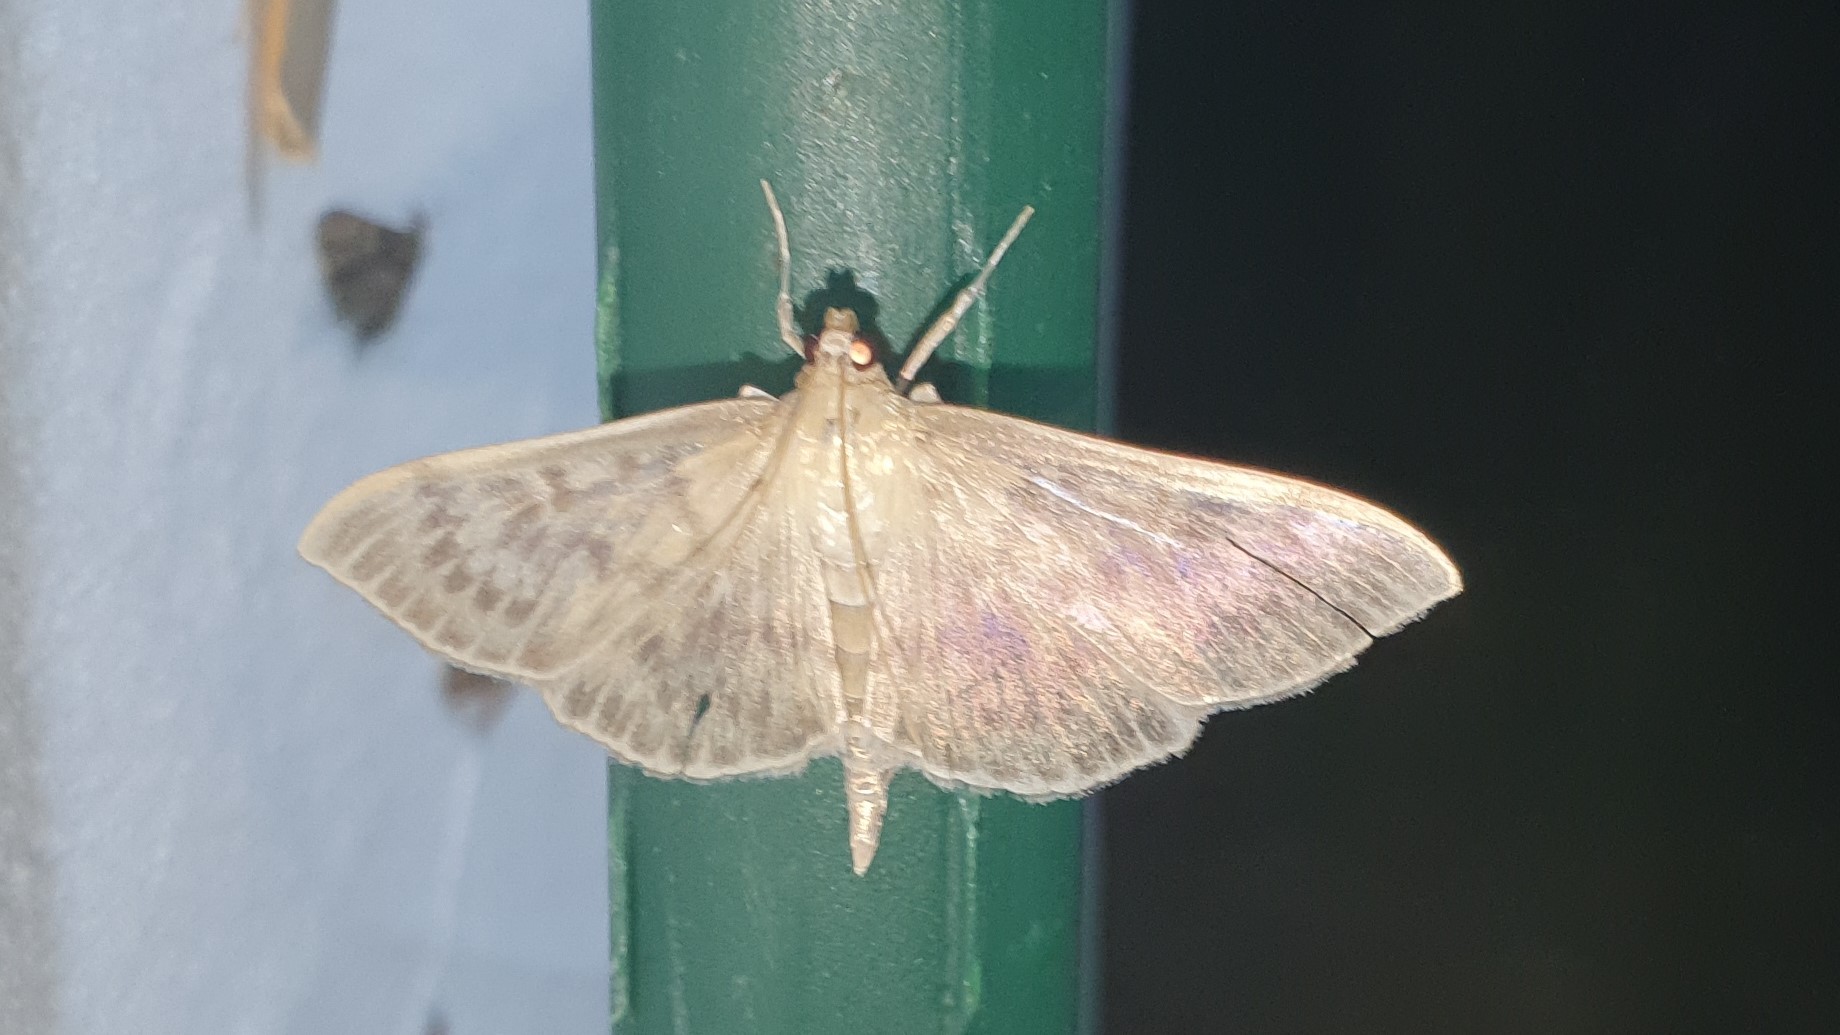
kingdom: Animalia
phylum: Arthropoda
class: Insecta
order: Lepidoptera
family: Crambidae
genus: Patania
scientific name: Patania ruralis
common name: Mother of pearl
